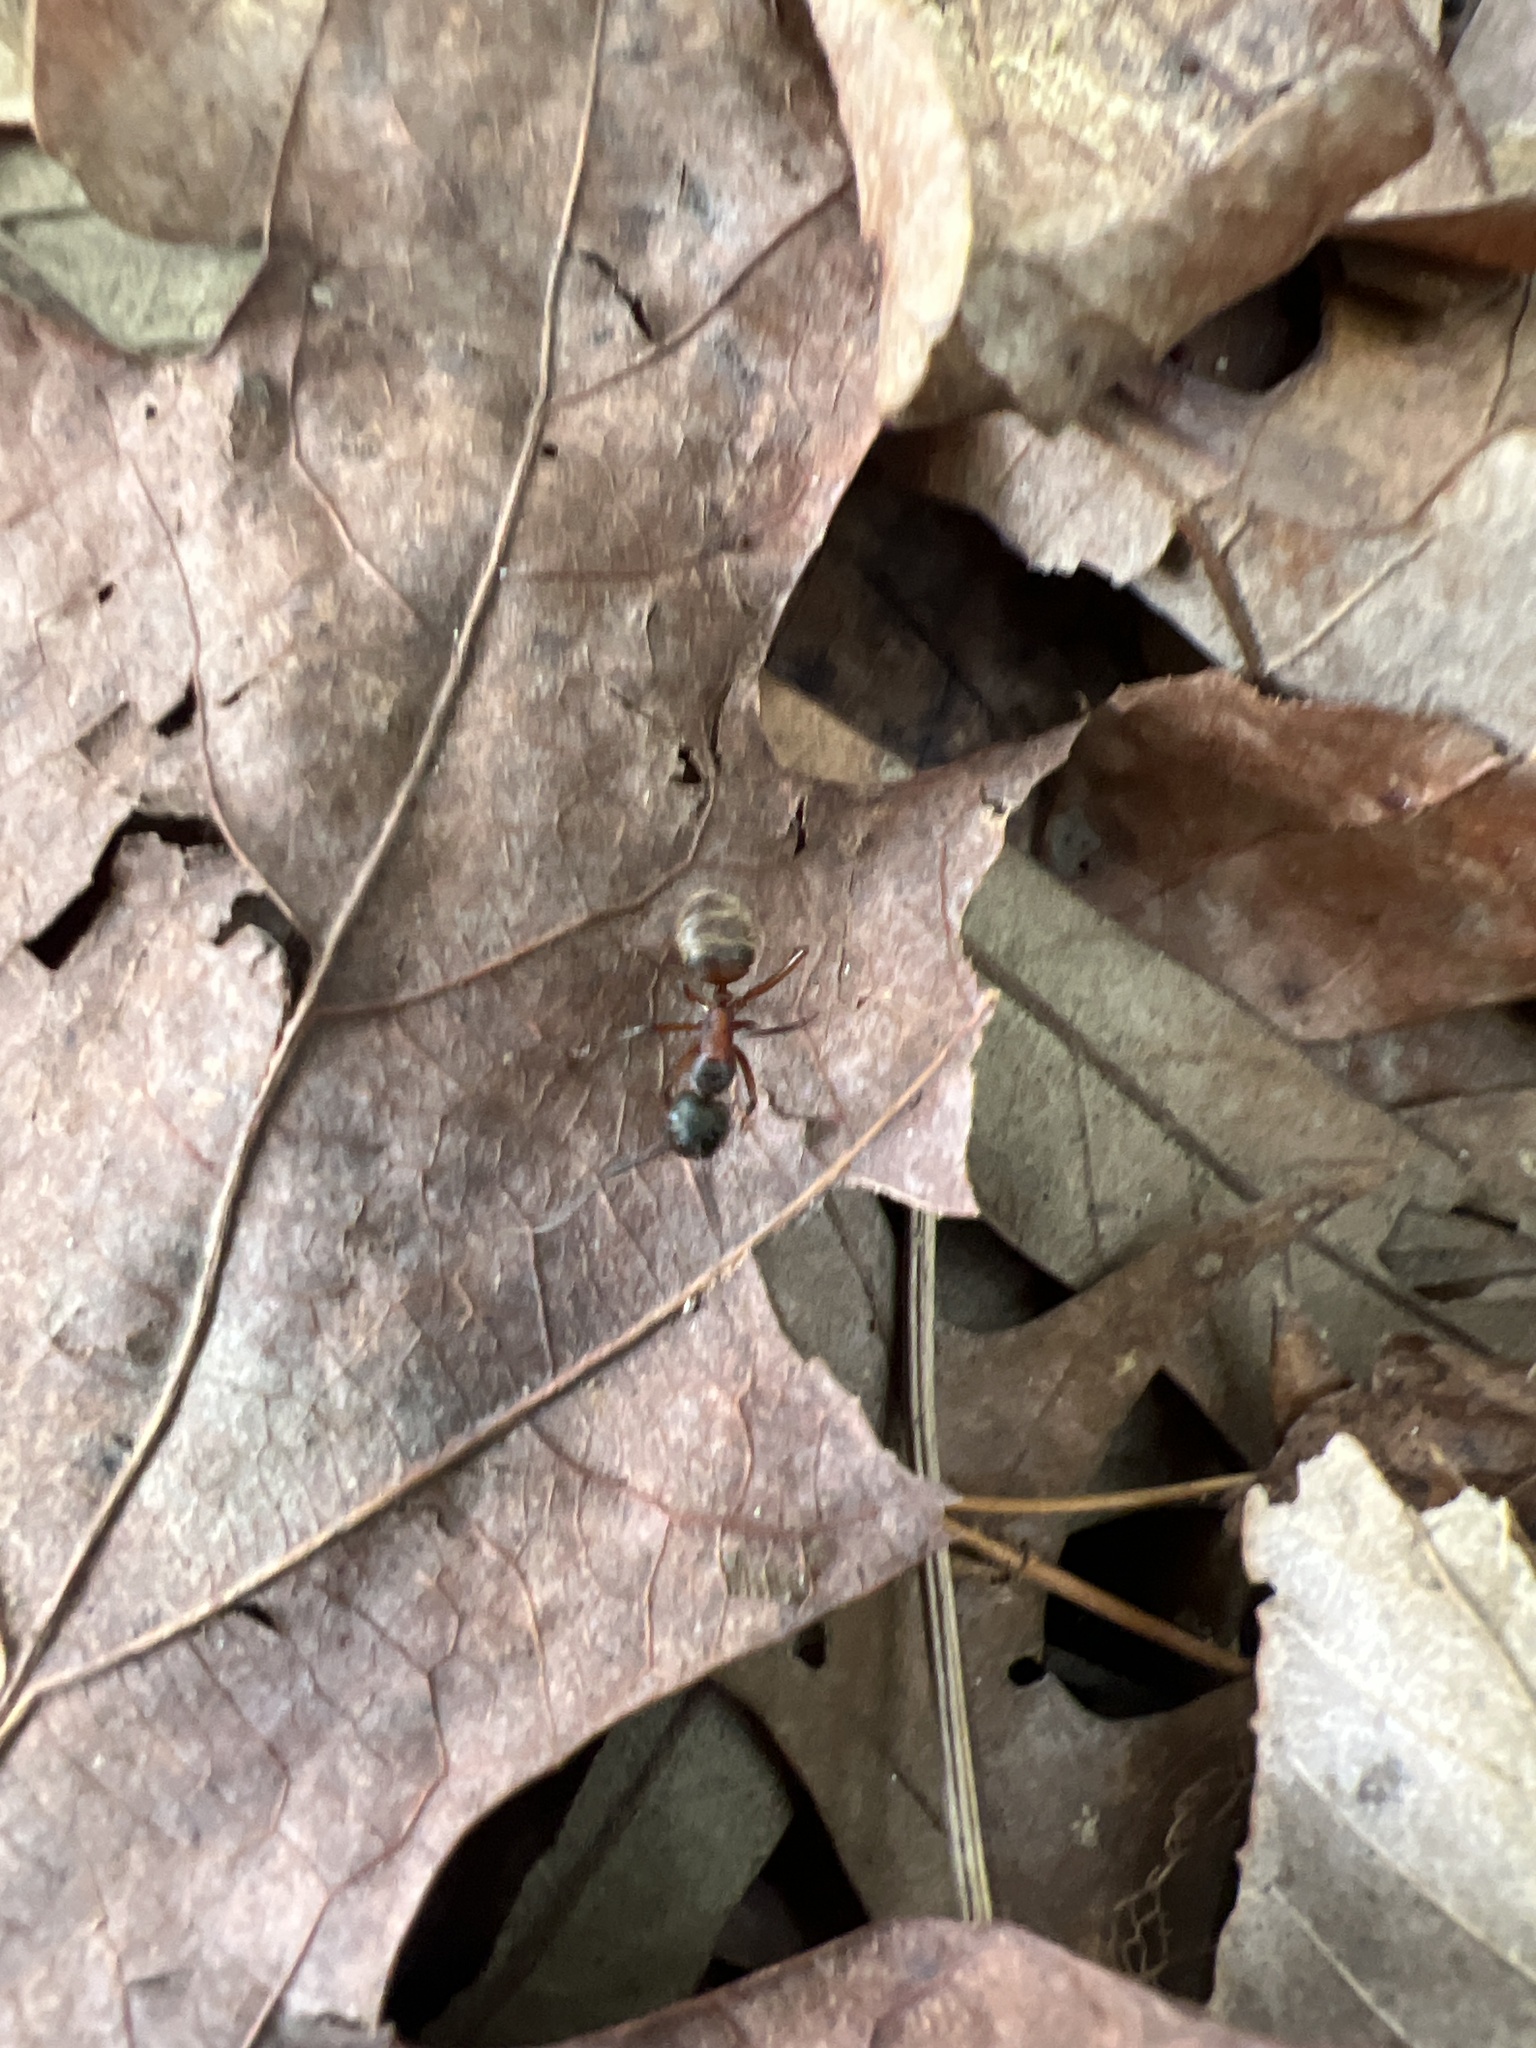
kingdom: Animalia
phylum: Arthropoda
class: Insecta
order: Hymenoptera
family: Formicidae
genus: Camponotus
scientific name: Camponotus chromaiodes
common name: Red carpenter ant
